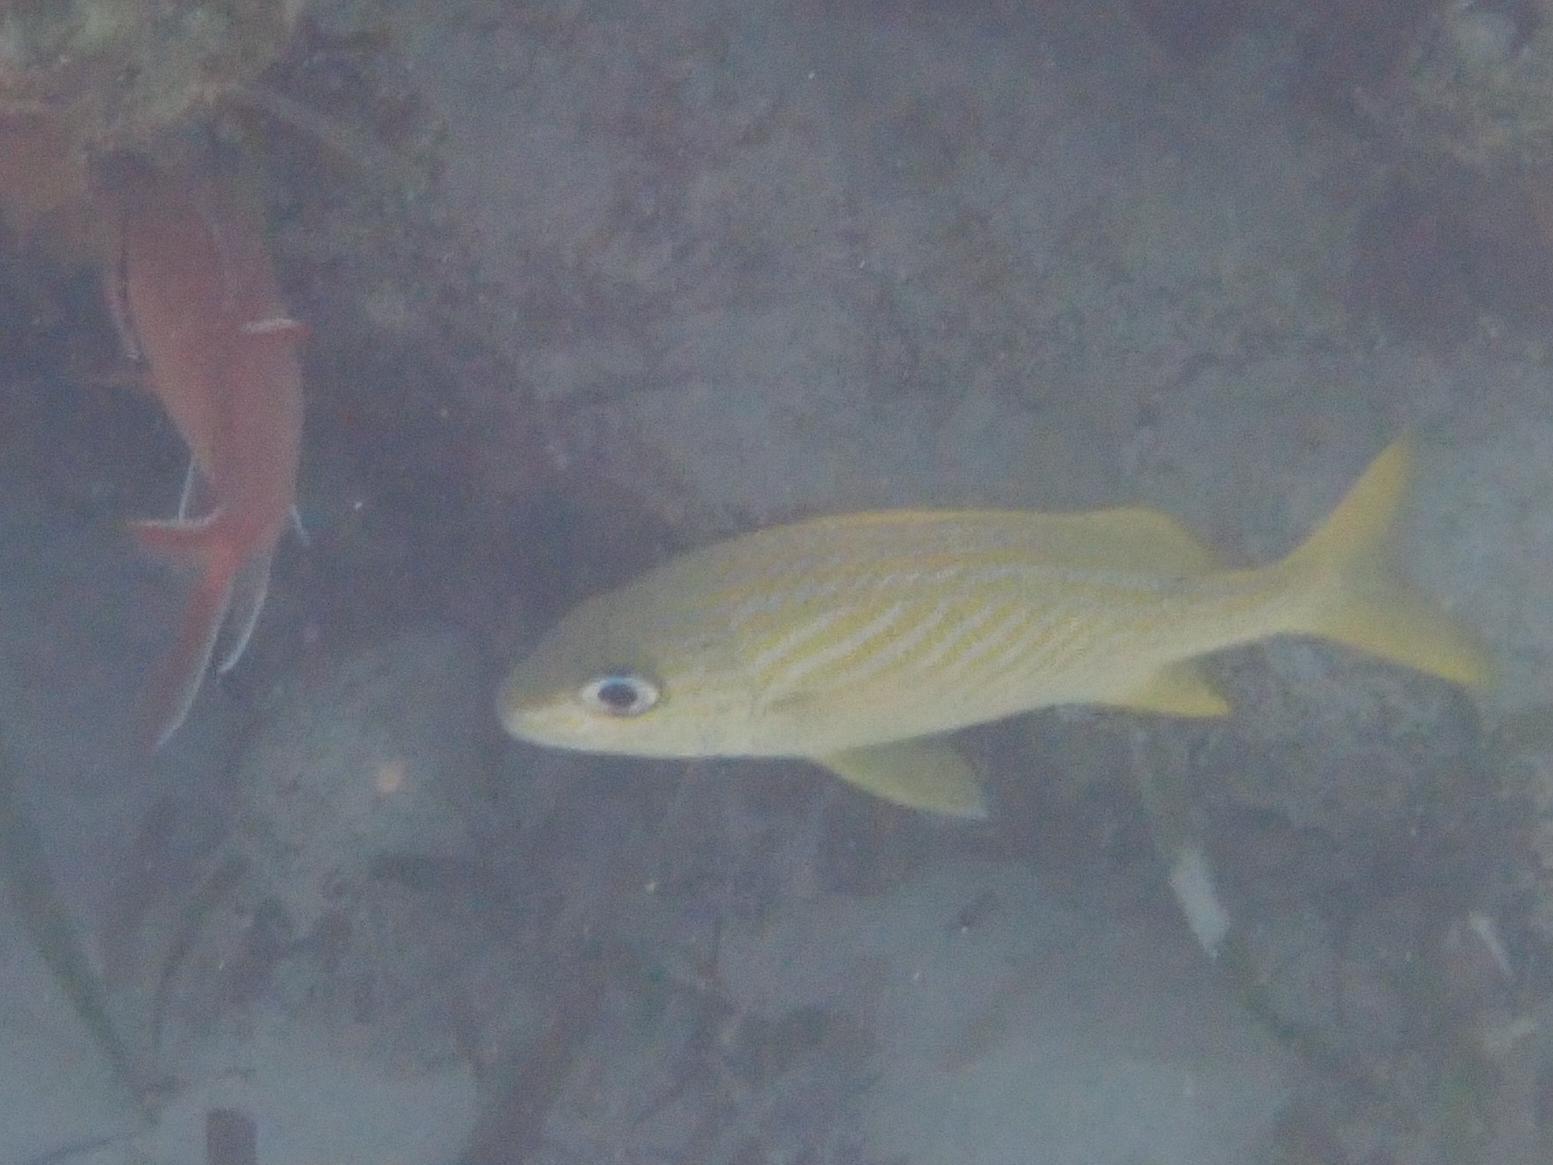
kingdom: Animalia
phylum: Chordata
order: Perciformes
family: Haemulidae
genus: Haemulon
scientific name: Haemulon flavolineatum
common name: French grunt
